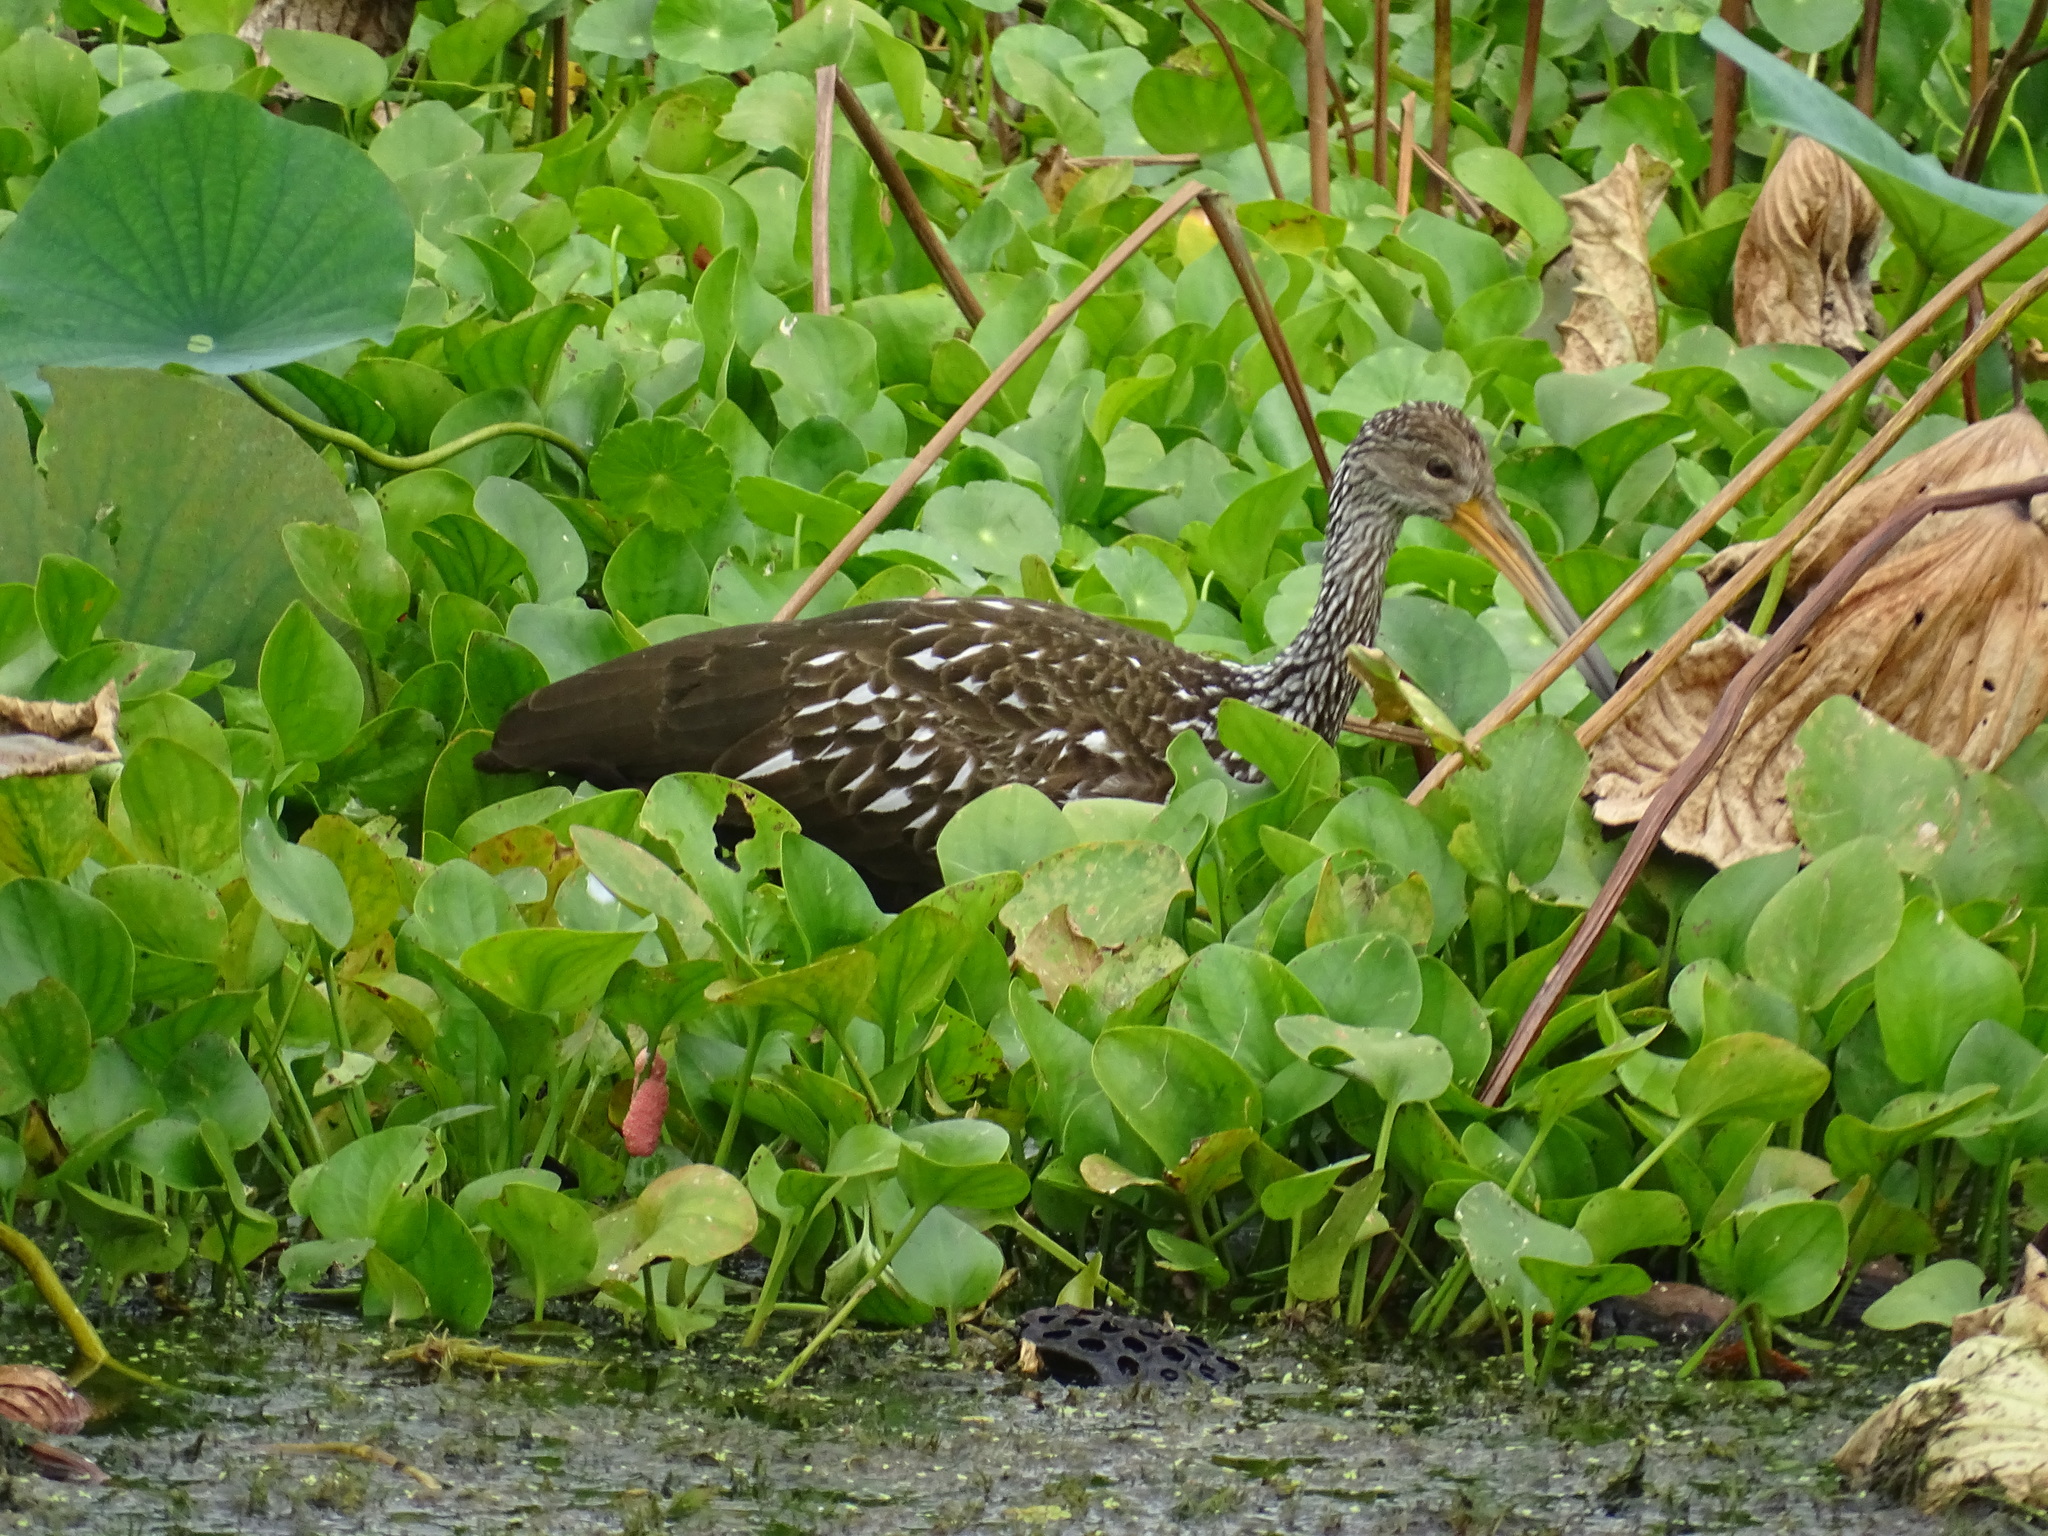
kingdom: Animalia
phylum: Chordata
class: Aves
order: Gruiformes
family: Aramidae
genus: Aramus
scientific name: Aramus guarauna
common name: Limpkin
